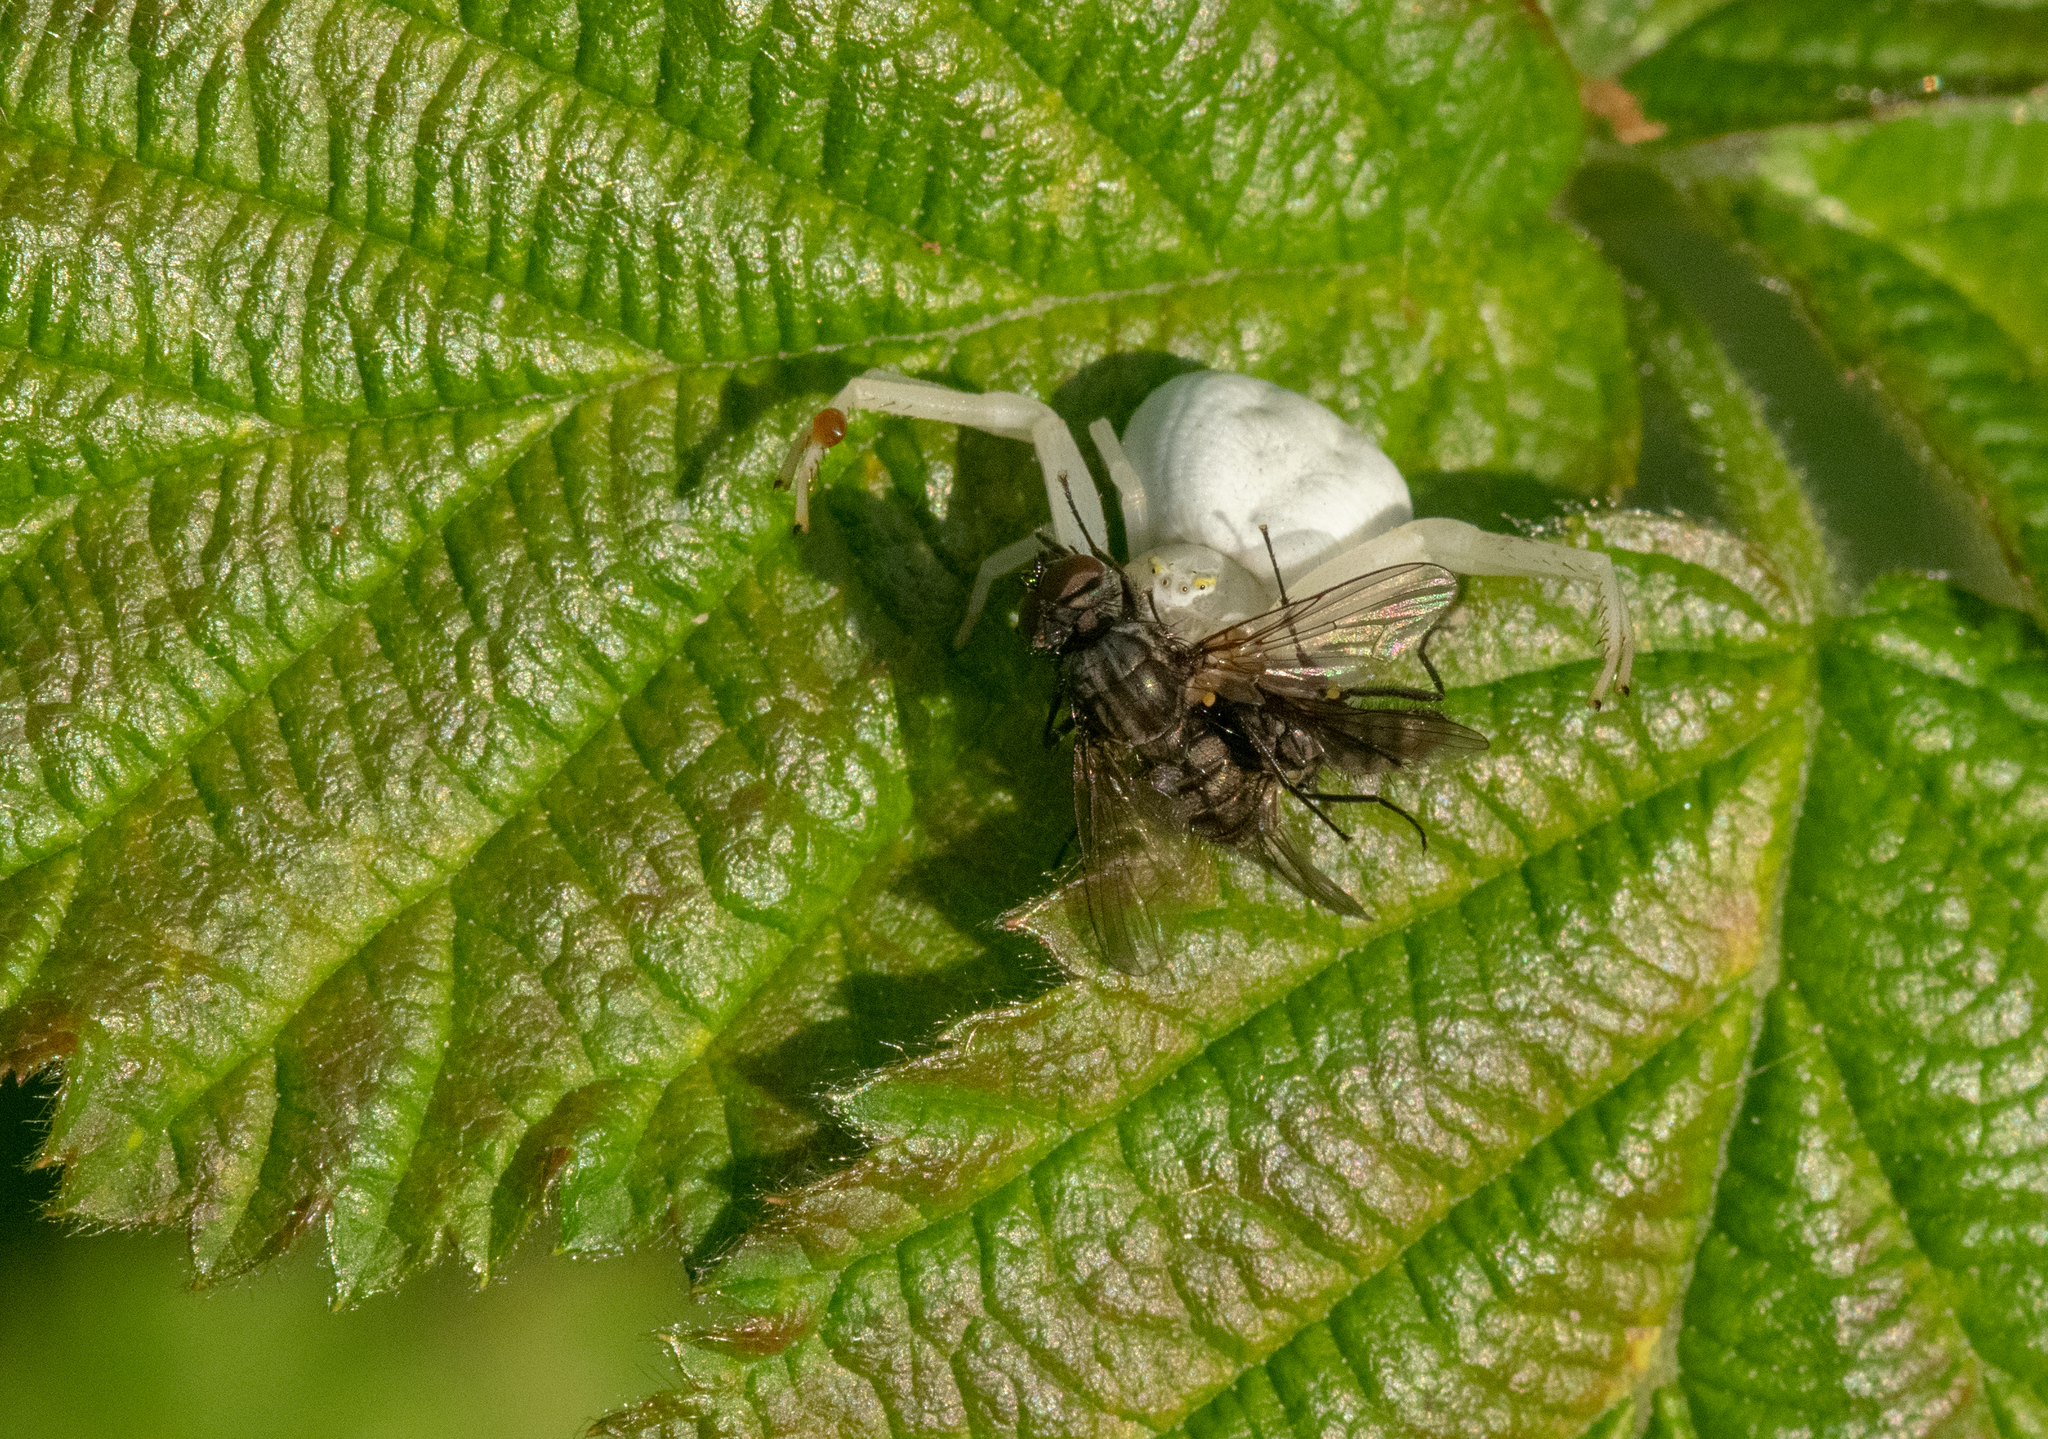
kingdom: Animalia
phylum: Arthropoda
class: Arachnida
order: Araneae
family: Thomisidae
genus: Misumena
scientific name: Misumena vatia
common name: Goldenrod crab spider
